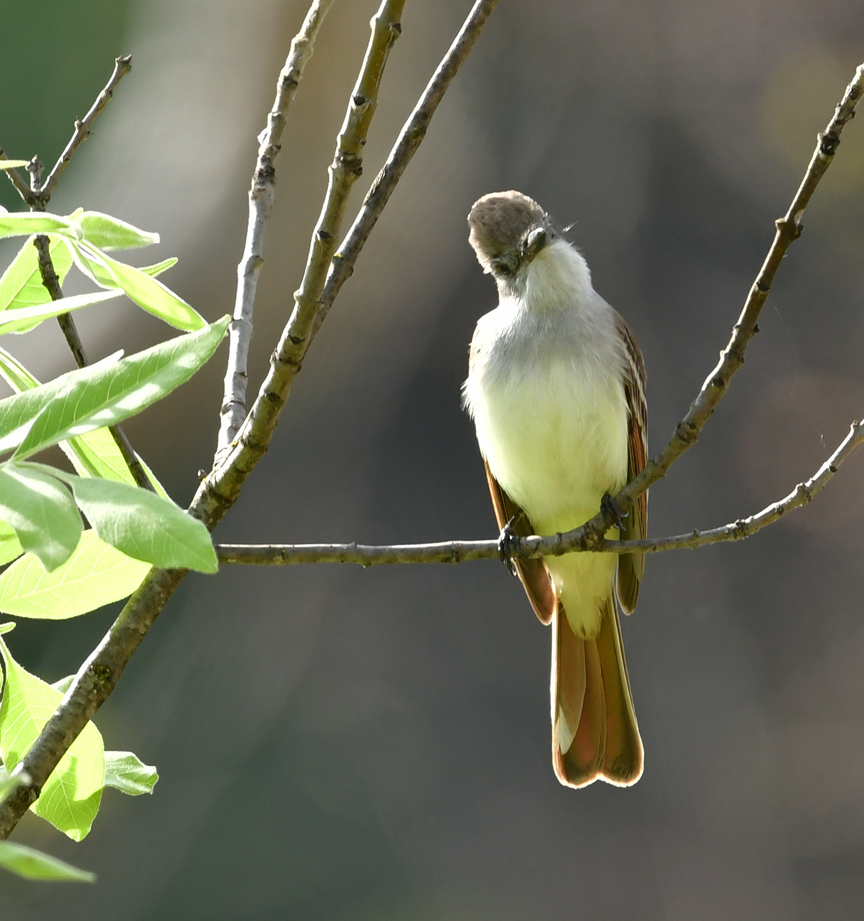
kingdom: Animalia
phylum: Chordata
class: Aves
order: Passeriformes
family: Tyrannidae
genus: Myiarchus
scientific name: Myiarchus cinerascens
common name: Ash-throated flycatcher
